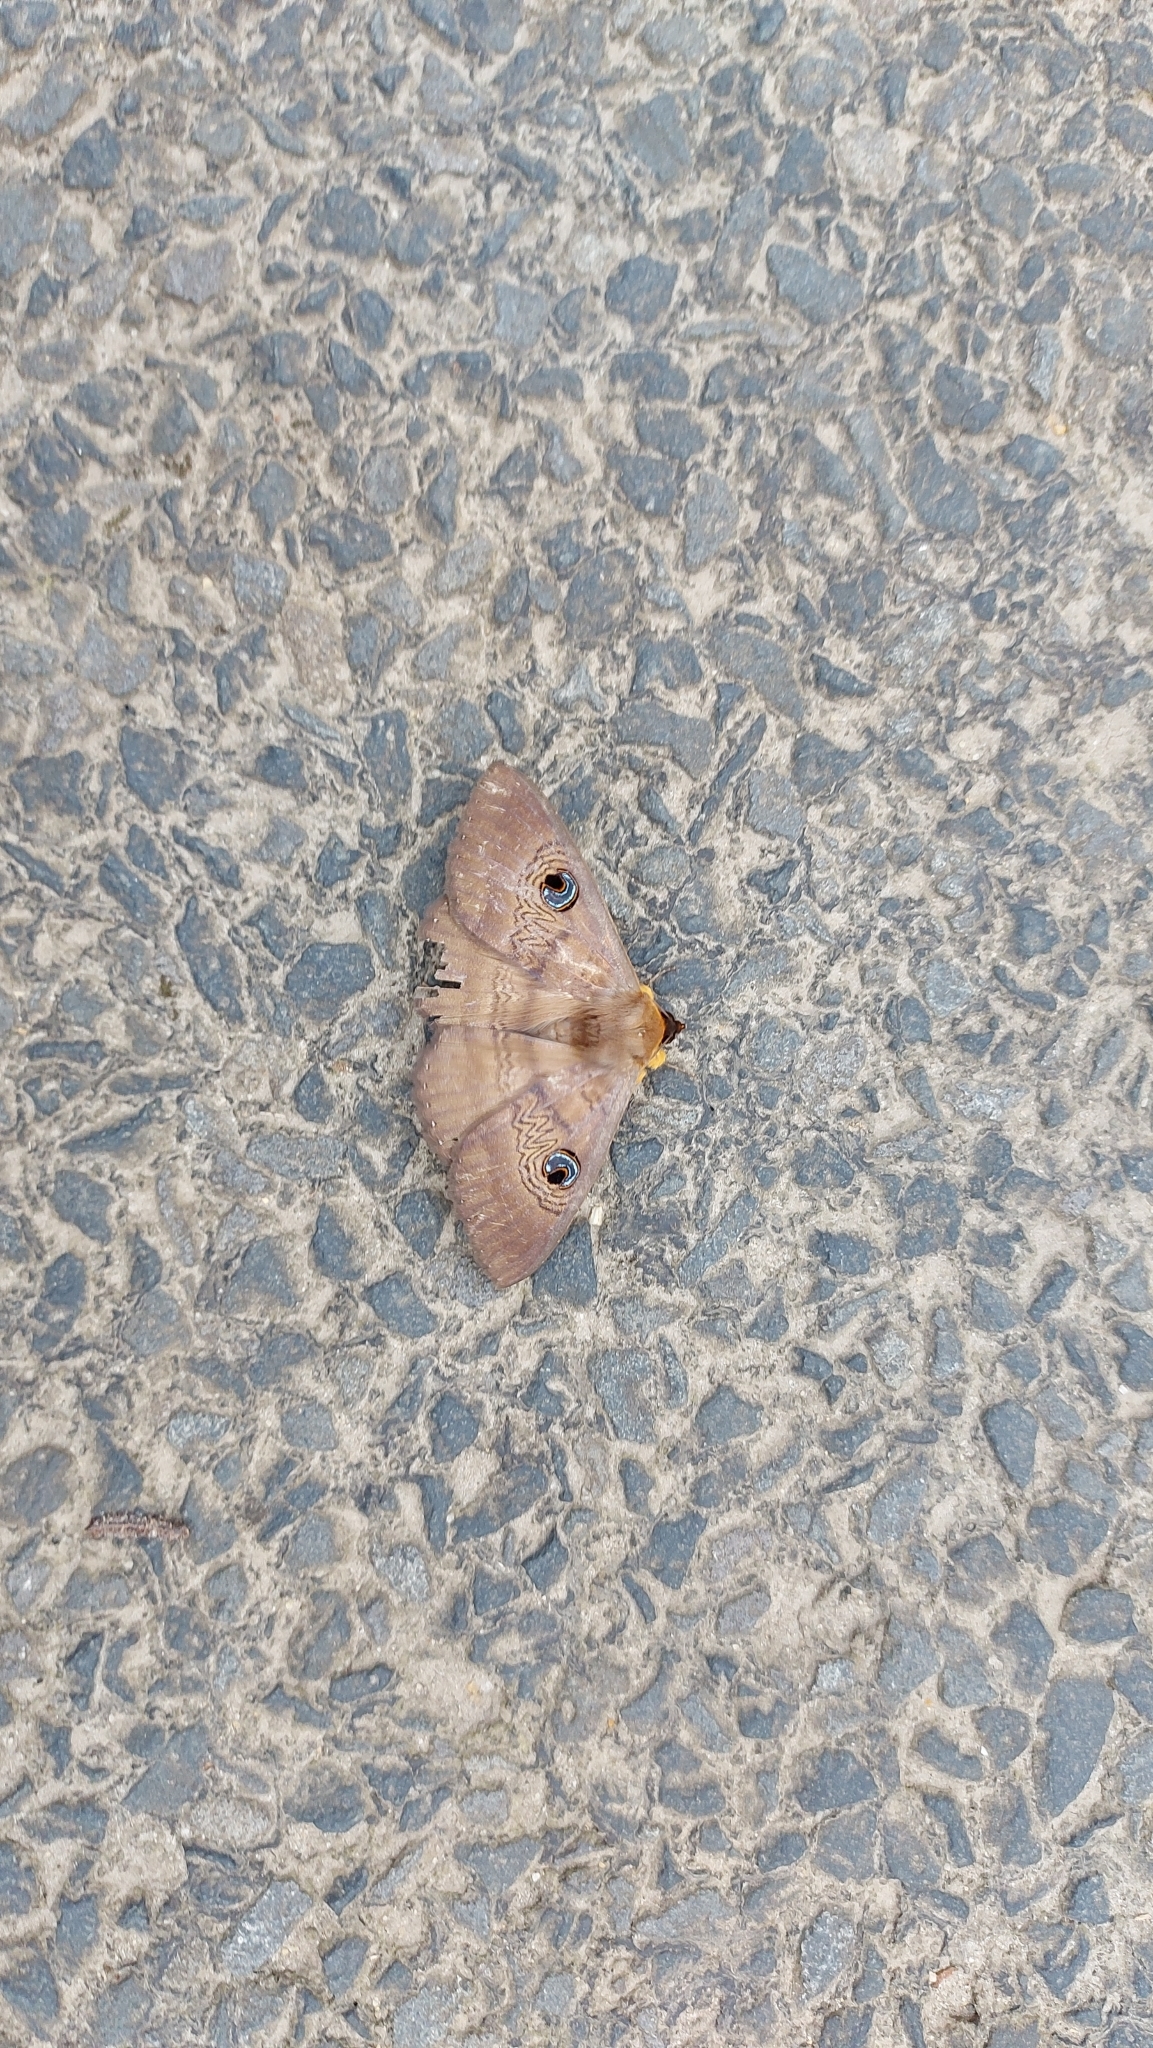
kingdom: Animalia
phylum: Arthropoda
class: Insecta
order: Lepidoptera
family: Erebidae
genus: Dasypodia
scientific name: Dasypodia selenophora
